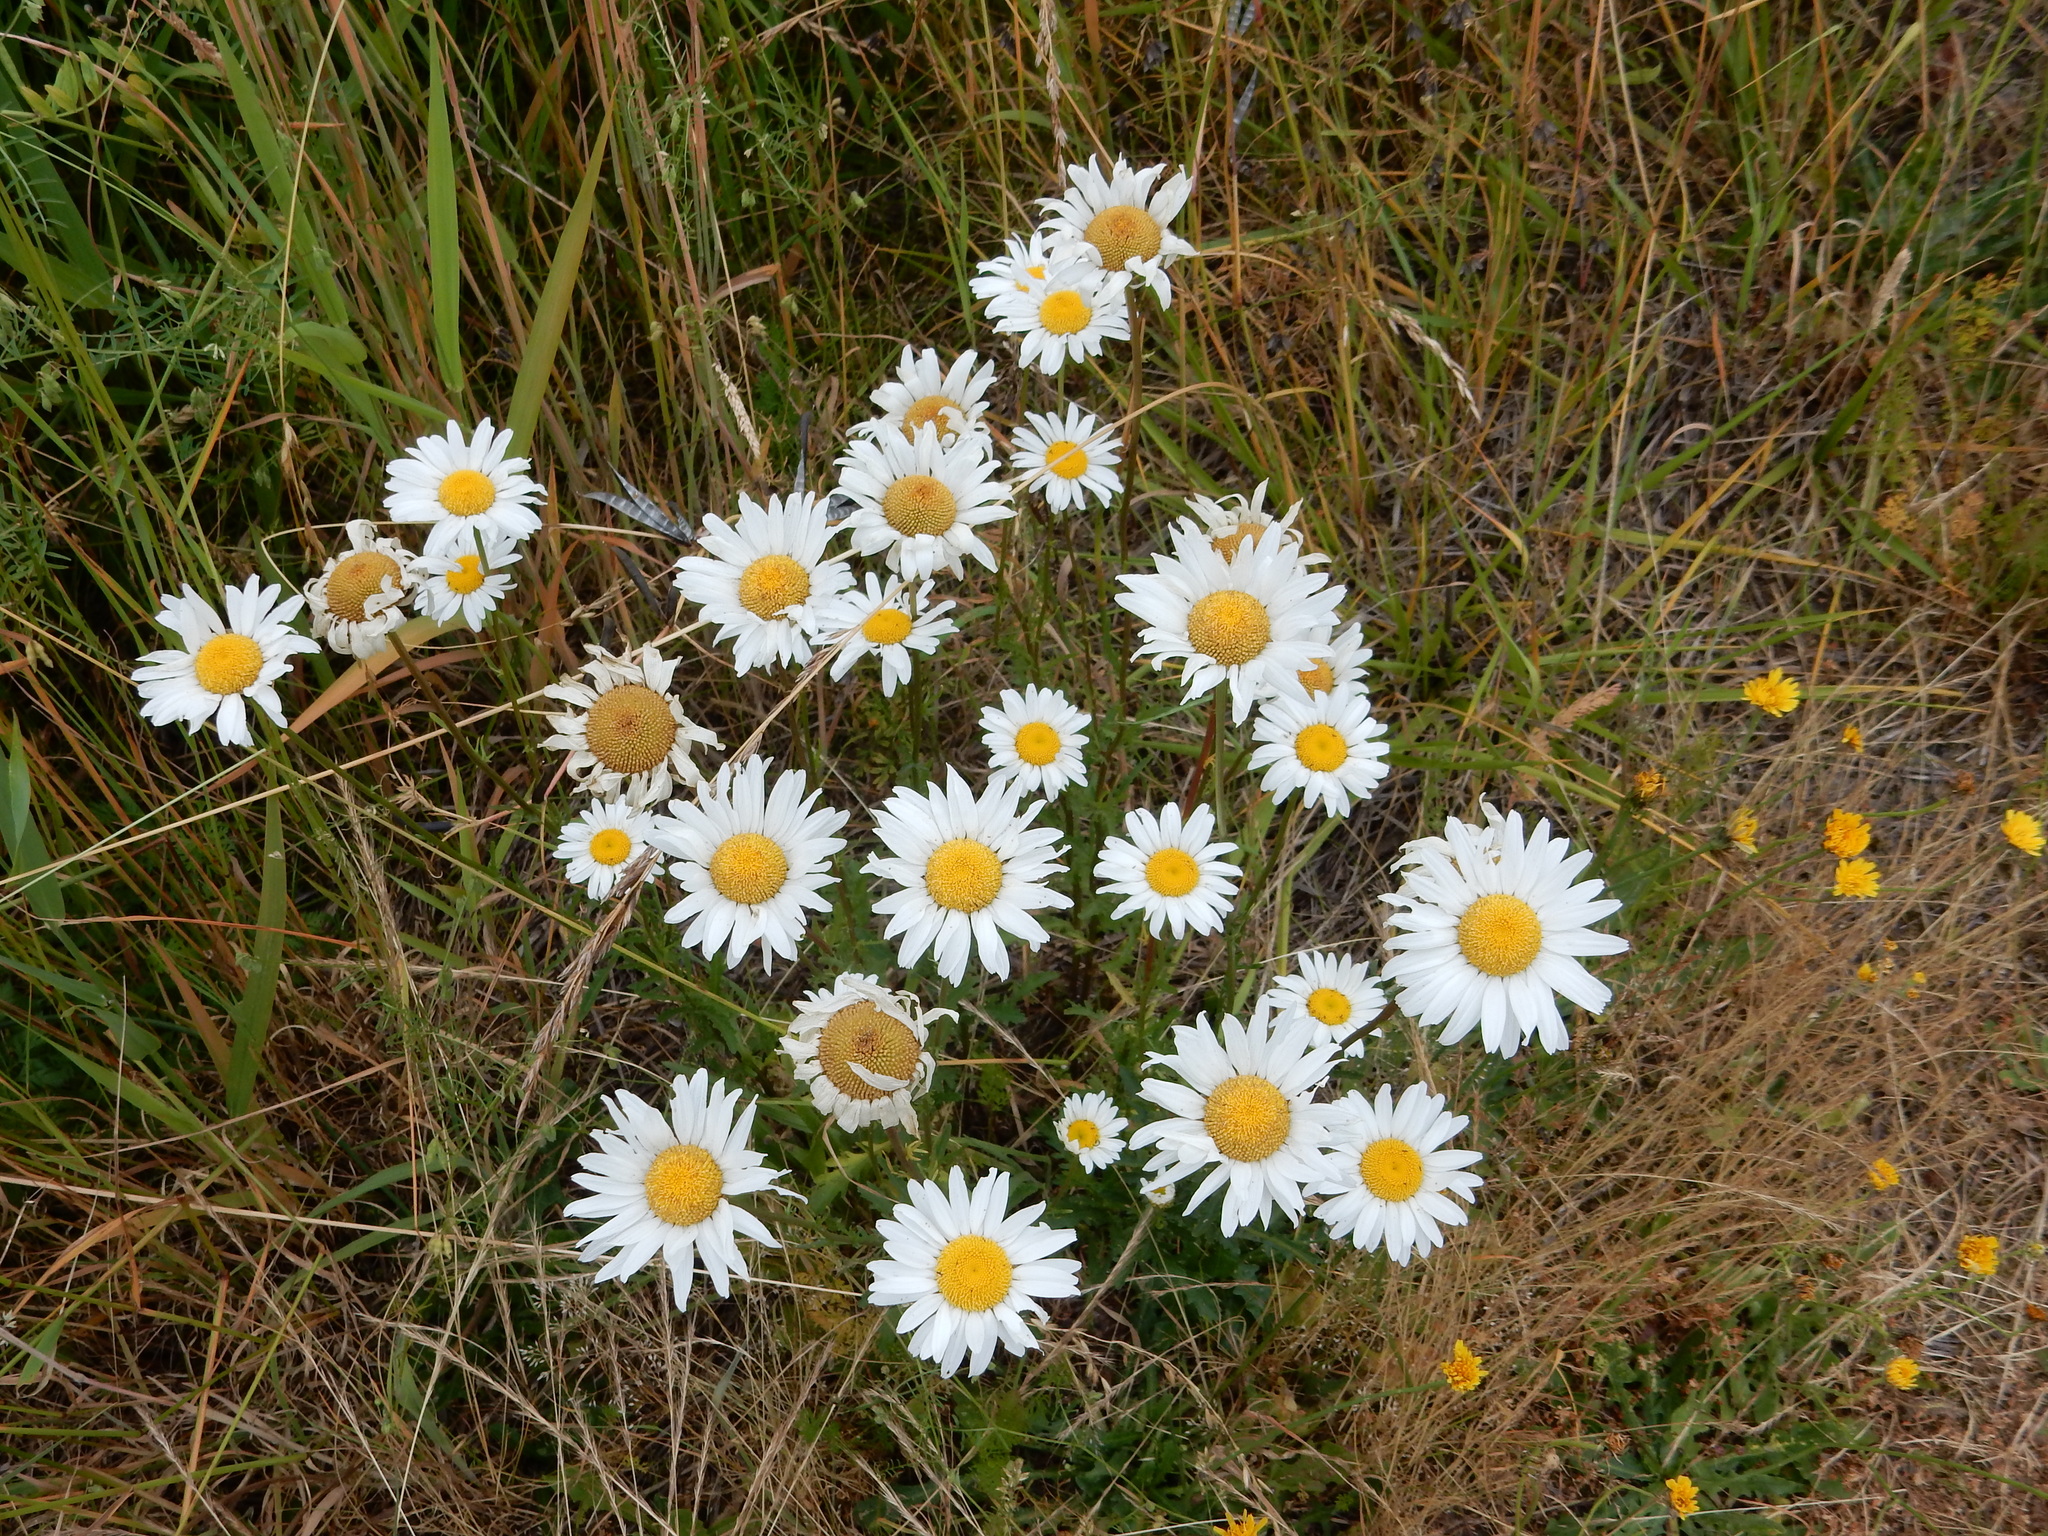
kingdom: Plantae
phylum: Tracheophyta
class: Magnoliopsida
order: Asterales
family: Asteraceae
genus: Leucanthemum
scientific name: Leucanthemum vulgare
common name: Oxeye daisy
